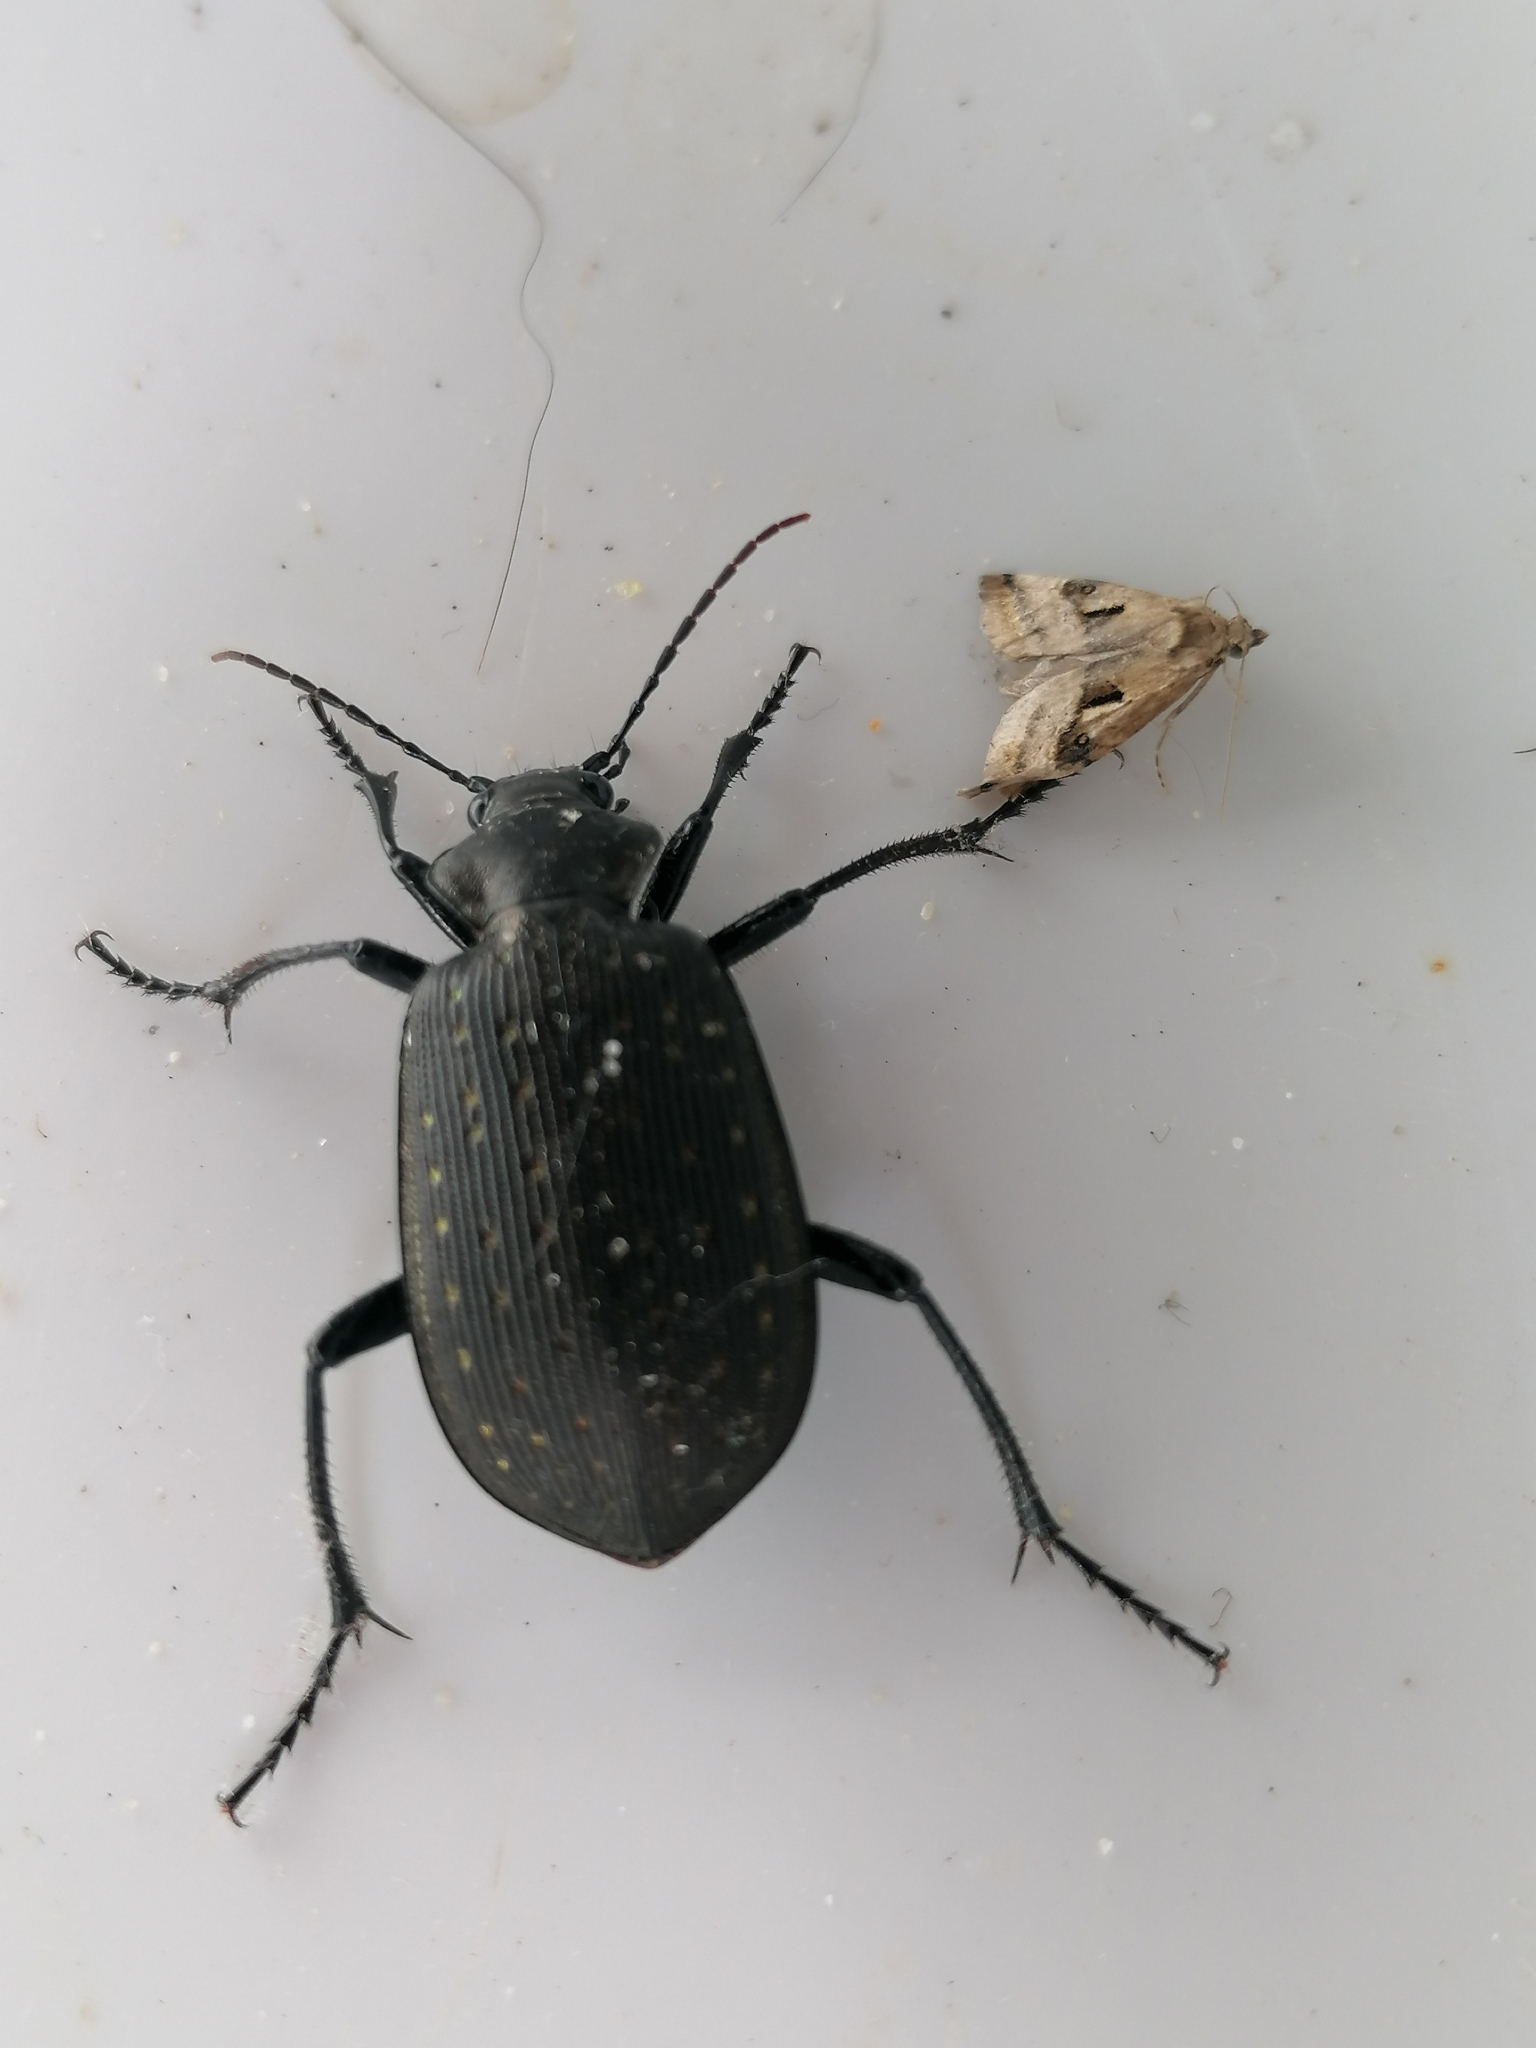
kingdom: Animalia
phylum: Arthropoda
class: Insecta
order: Coleoptera
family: Carabidae
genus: Calosoma
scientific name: Calosoma chlorostictum
